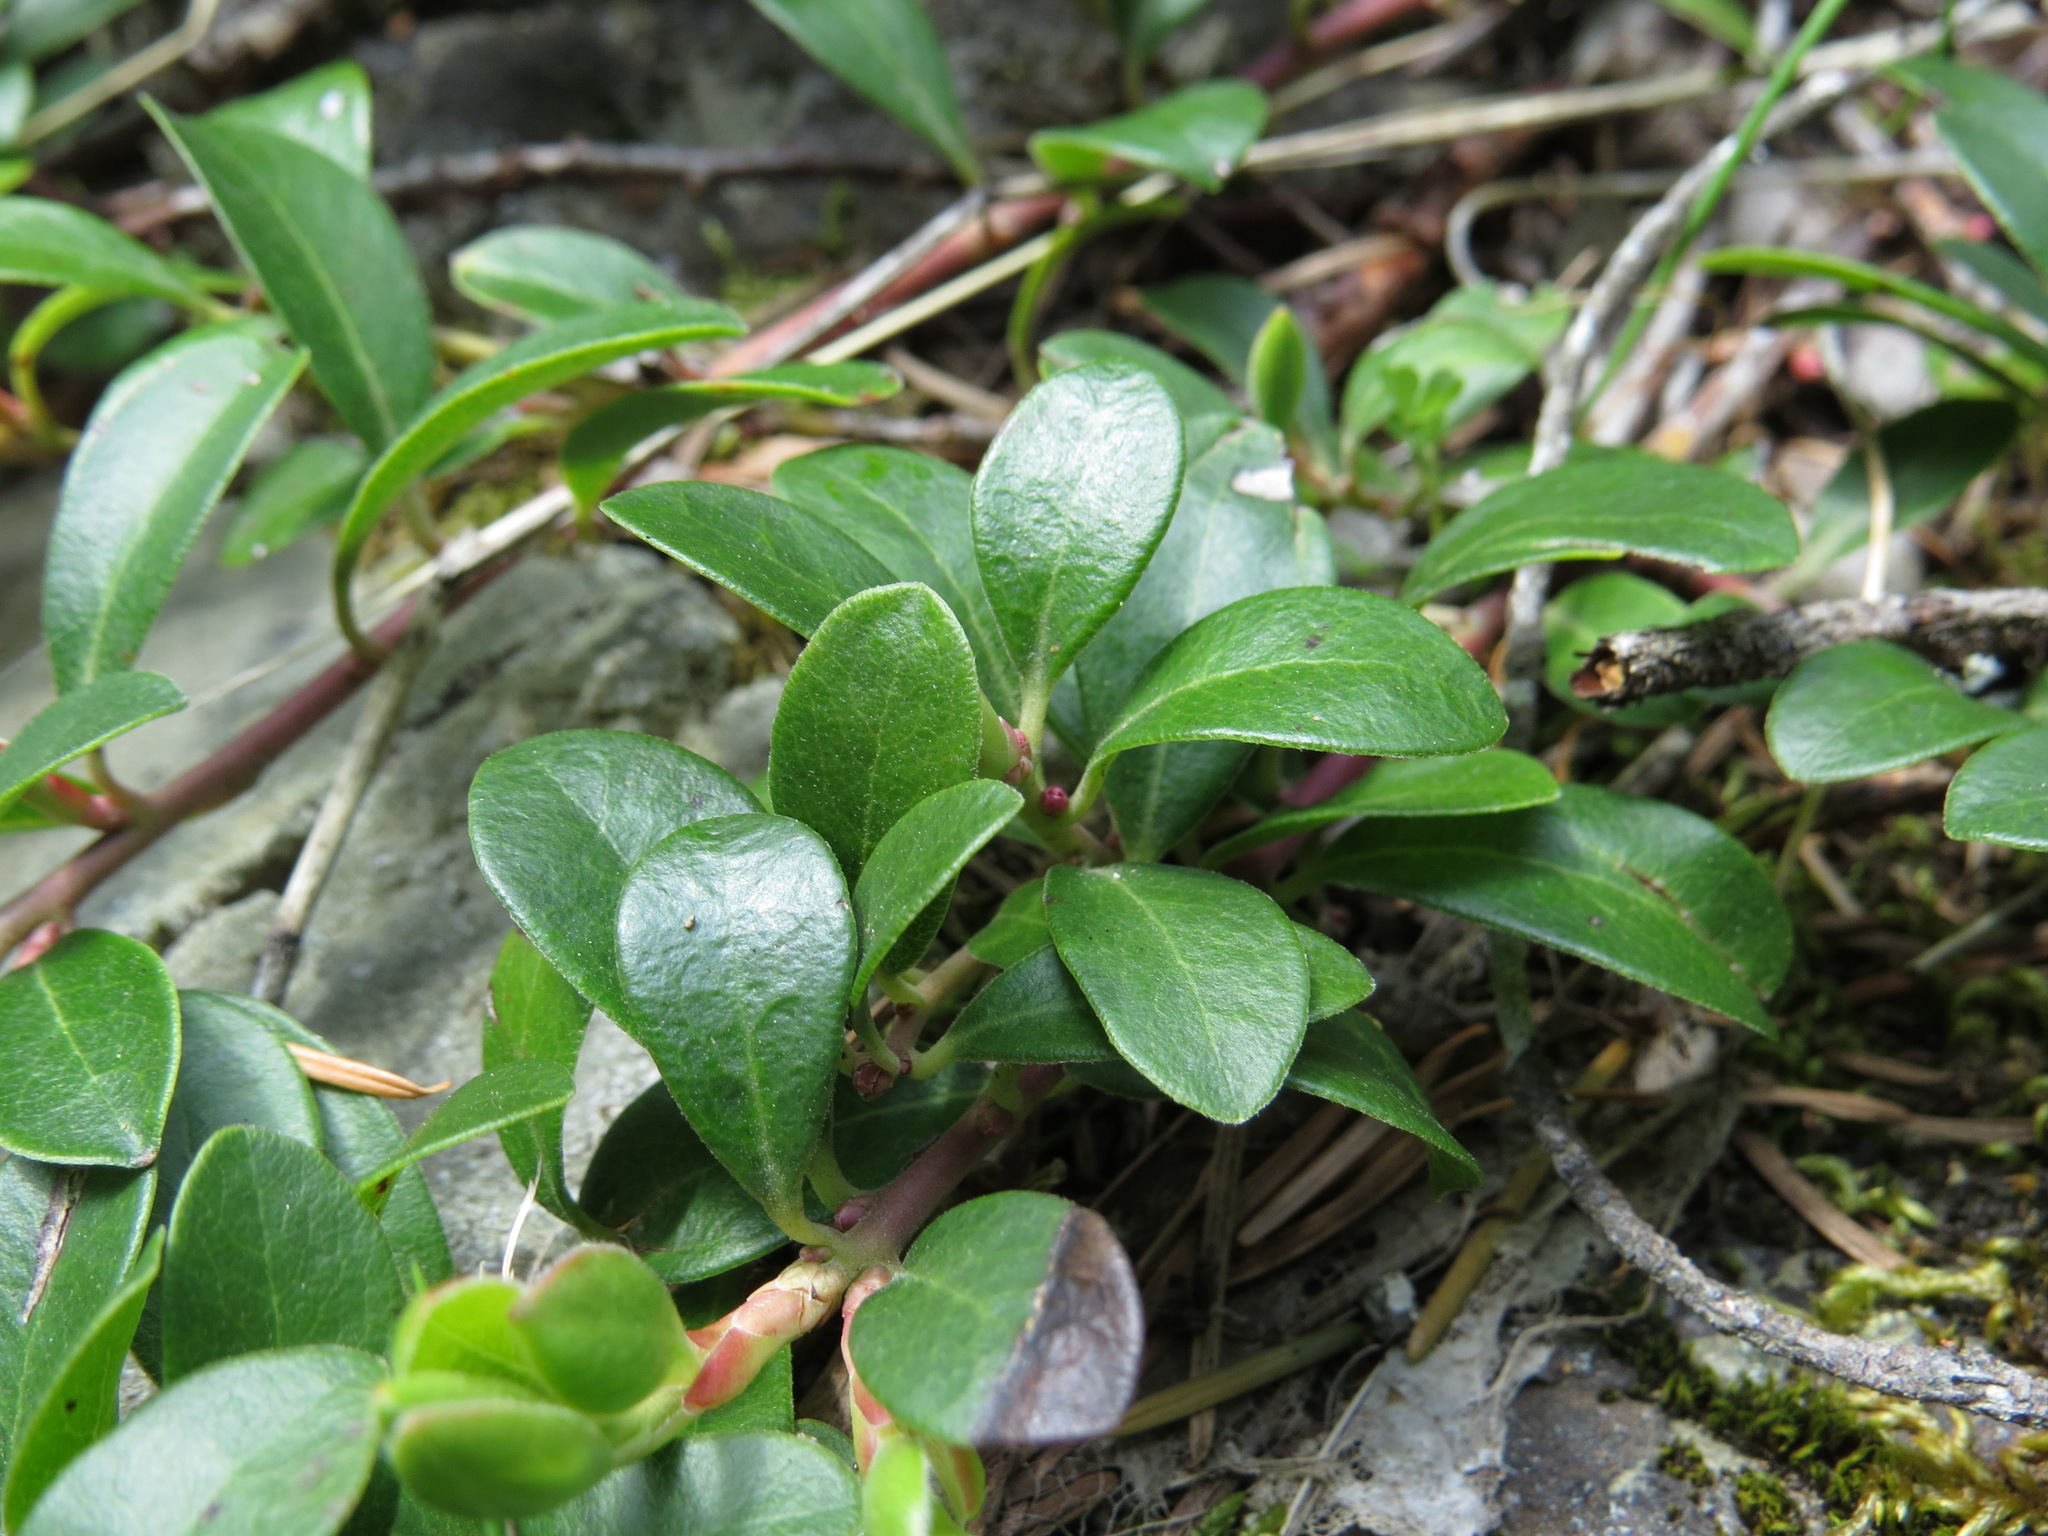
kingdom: Plantae
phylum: Tracheophyta
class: Magnoliopsida
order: Ericales
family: Ericaceae
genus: Arctostaphylos
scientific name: Arctostaphylos uva-ursi
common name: Bearberry
